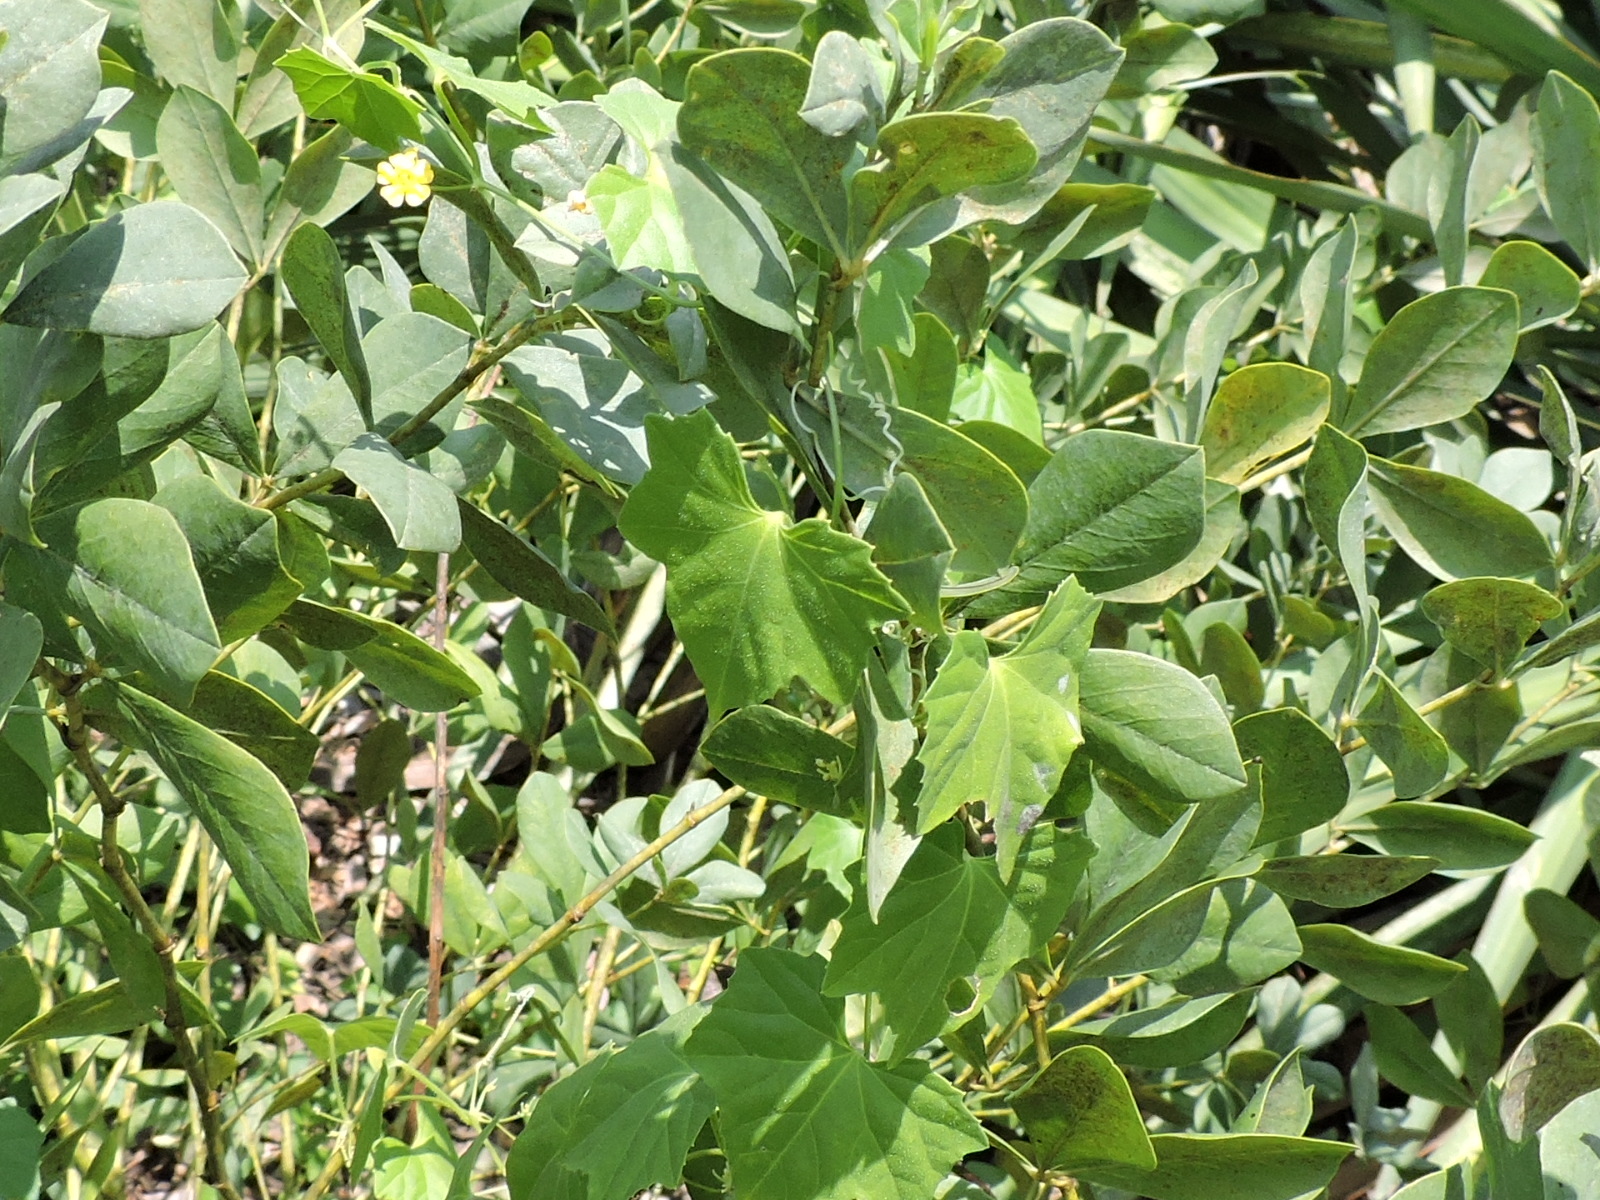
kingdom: Plantae
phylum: Tracheophyta
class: Magnoliopsida
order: Cucurbitales
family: Cucurbitaceae
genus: Melothria
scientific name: Melothria pendula
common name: Creeping-cucumber
